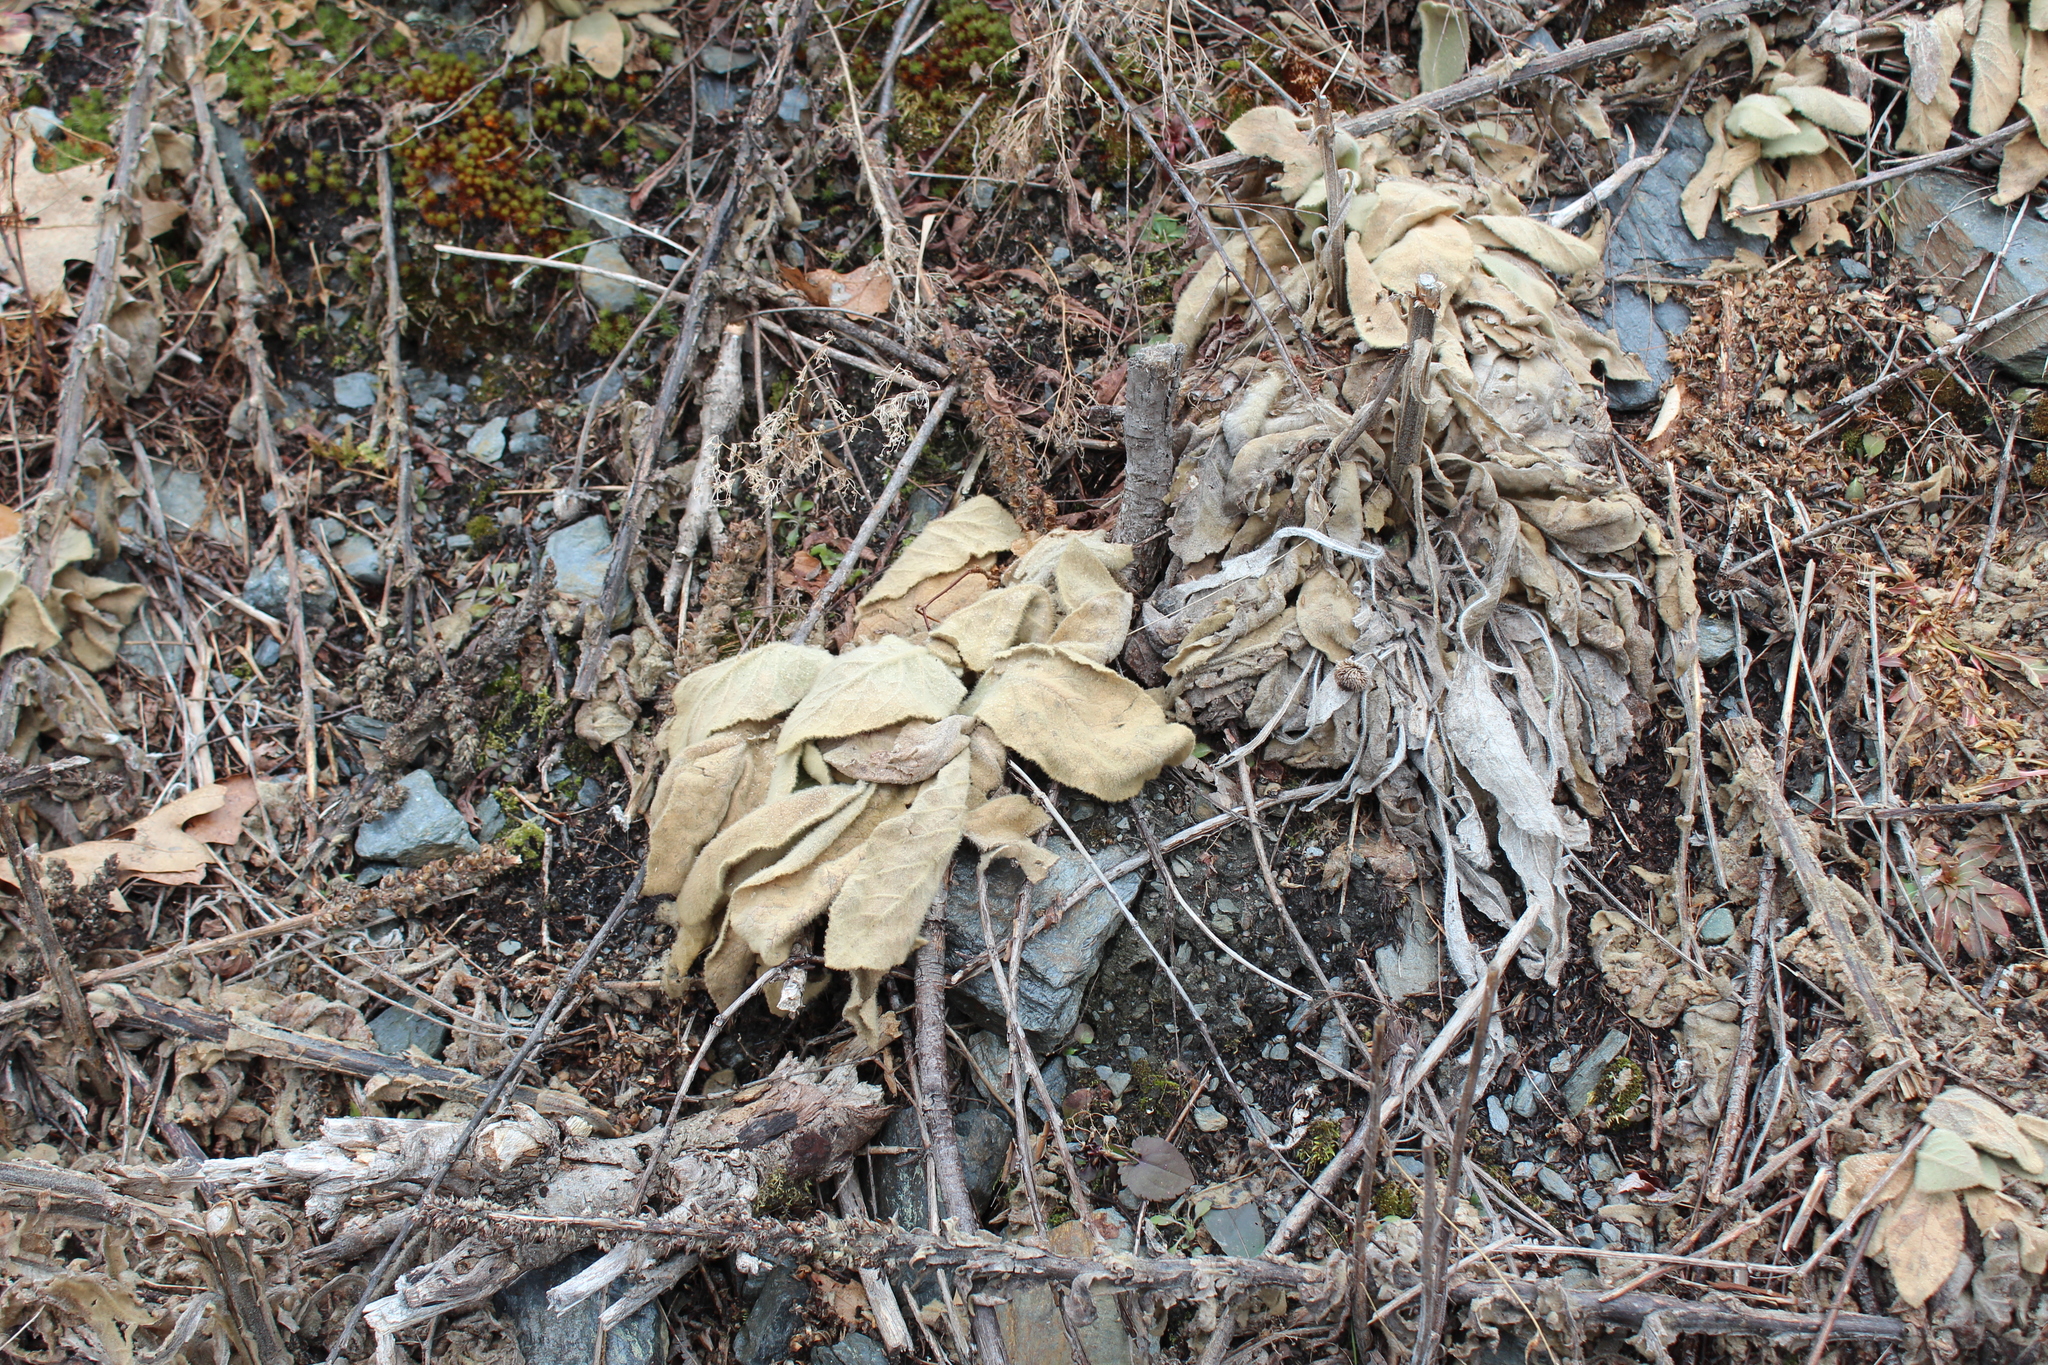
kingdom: Plantae
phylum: Tracheophyta
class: Magnoliopsida
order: Lamiales
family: Scrophulariaceae
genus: Verbascum
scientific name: Verbascum thapsus
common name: Common mullein
